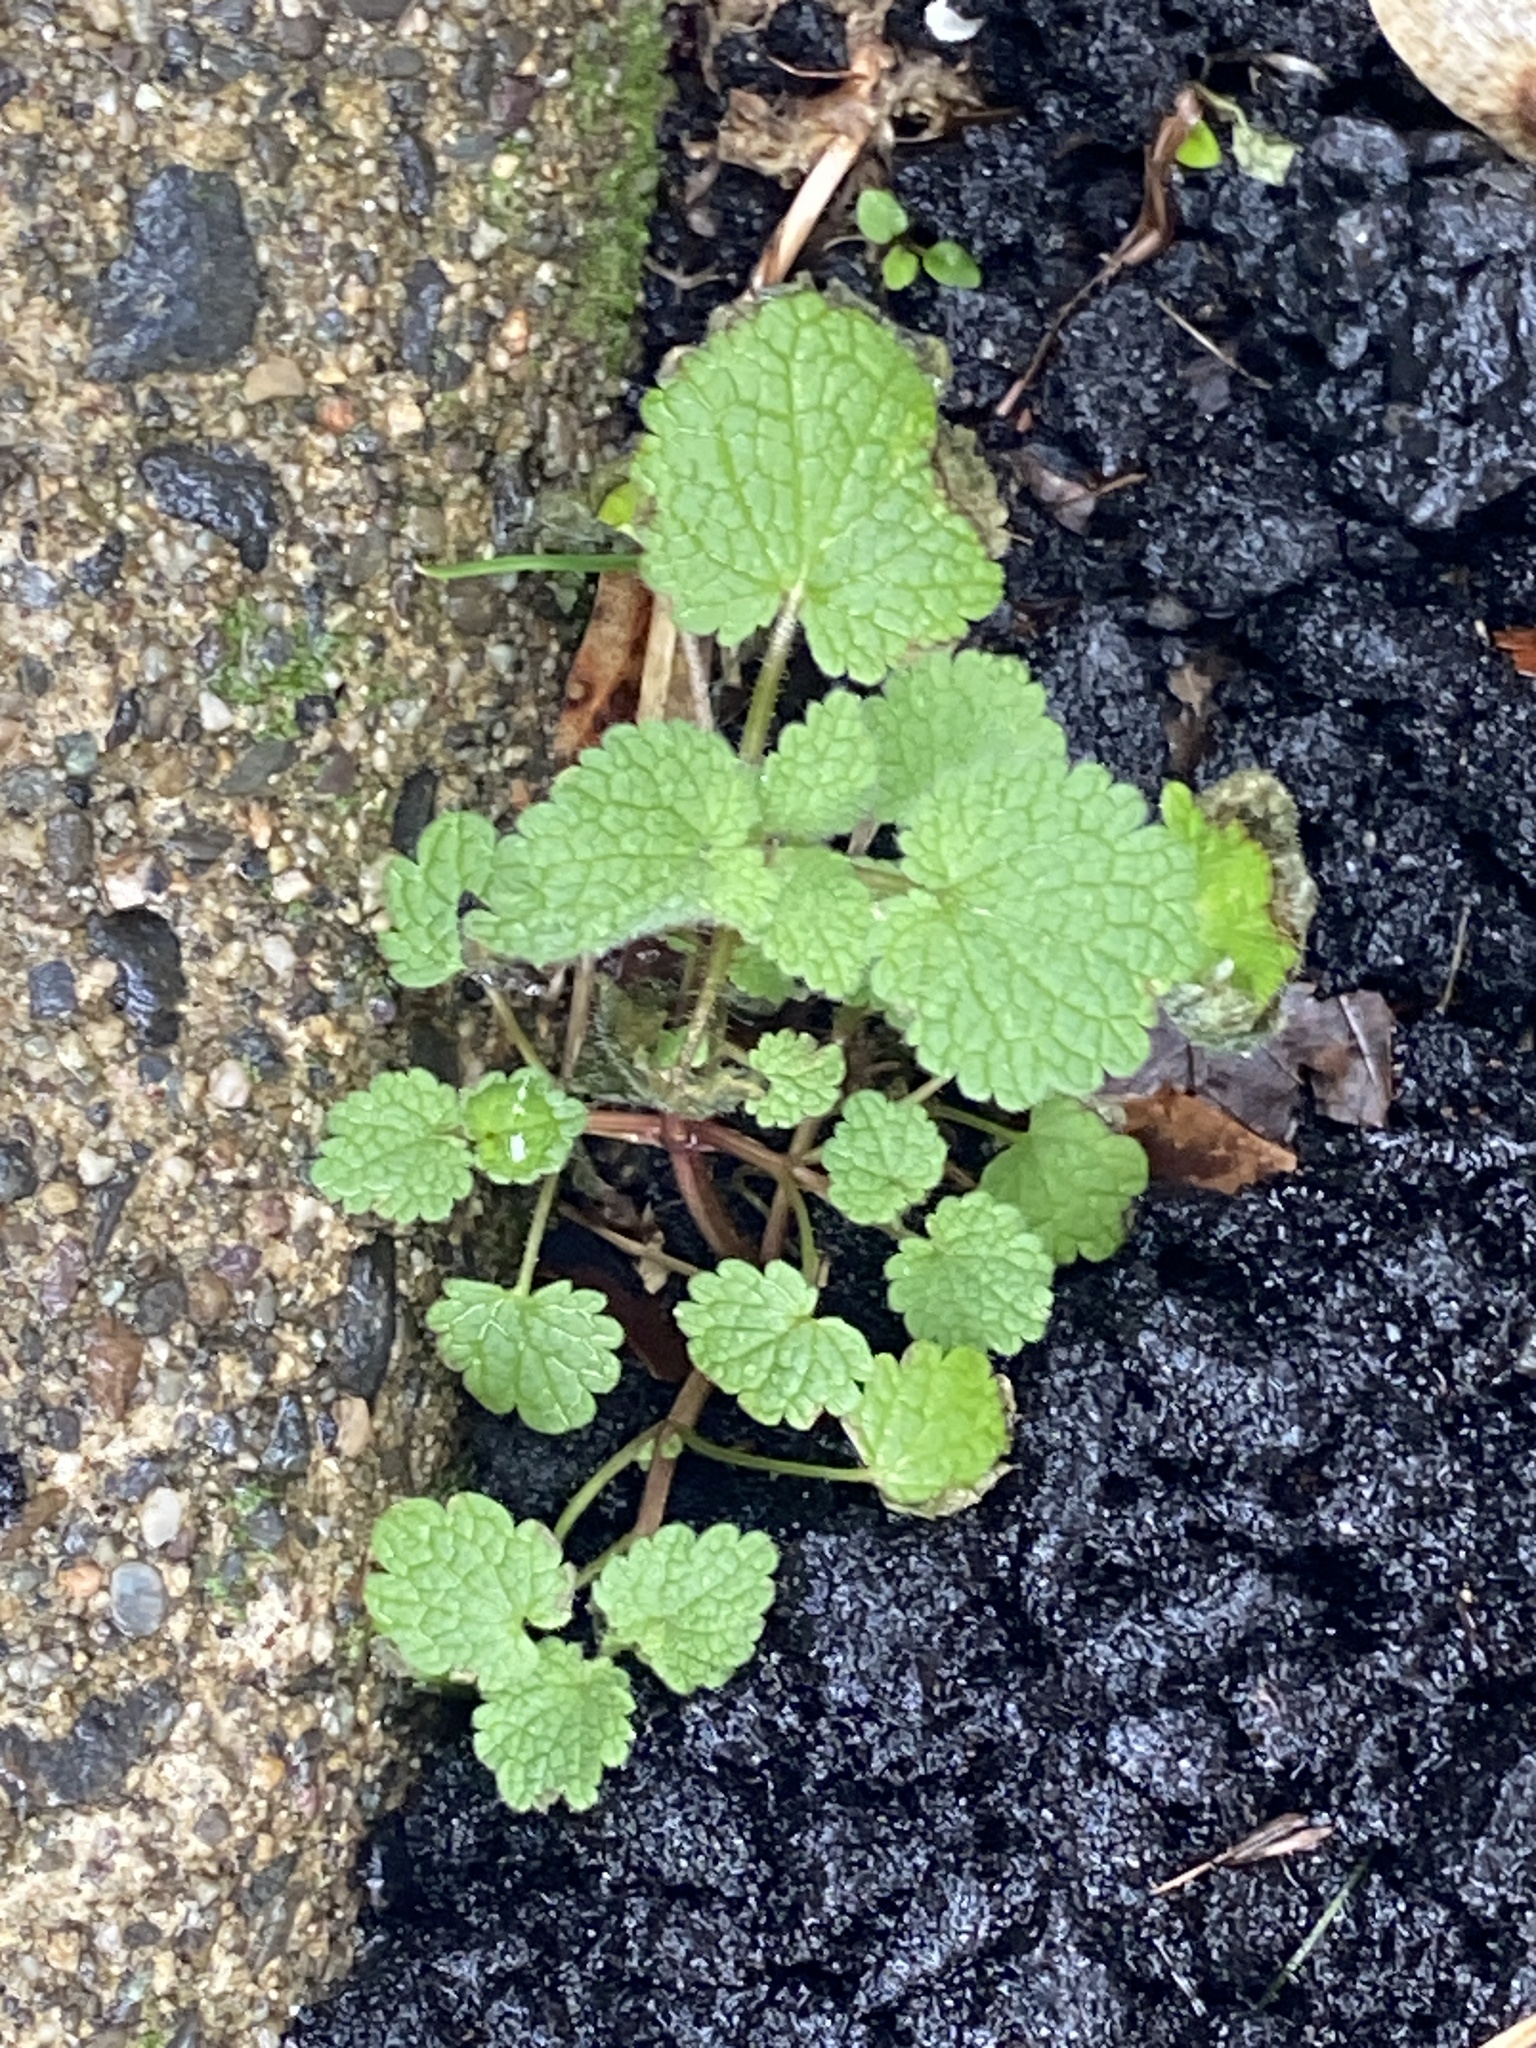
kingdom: Plantae
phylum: Tracheophyta
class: Magnoliopsida
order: Lamiales
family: Lamiaceae
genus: Lamium
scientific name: Lamium purpureum
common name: Red dead-nettle
